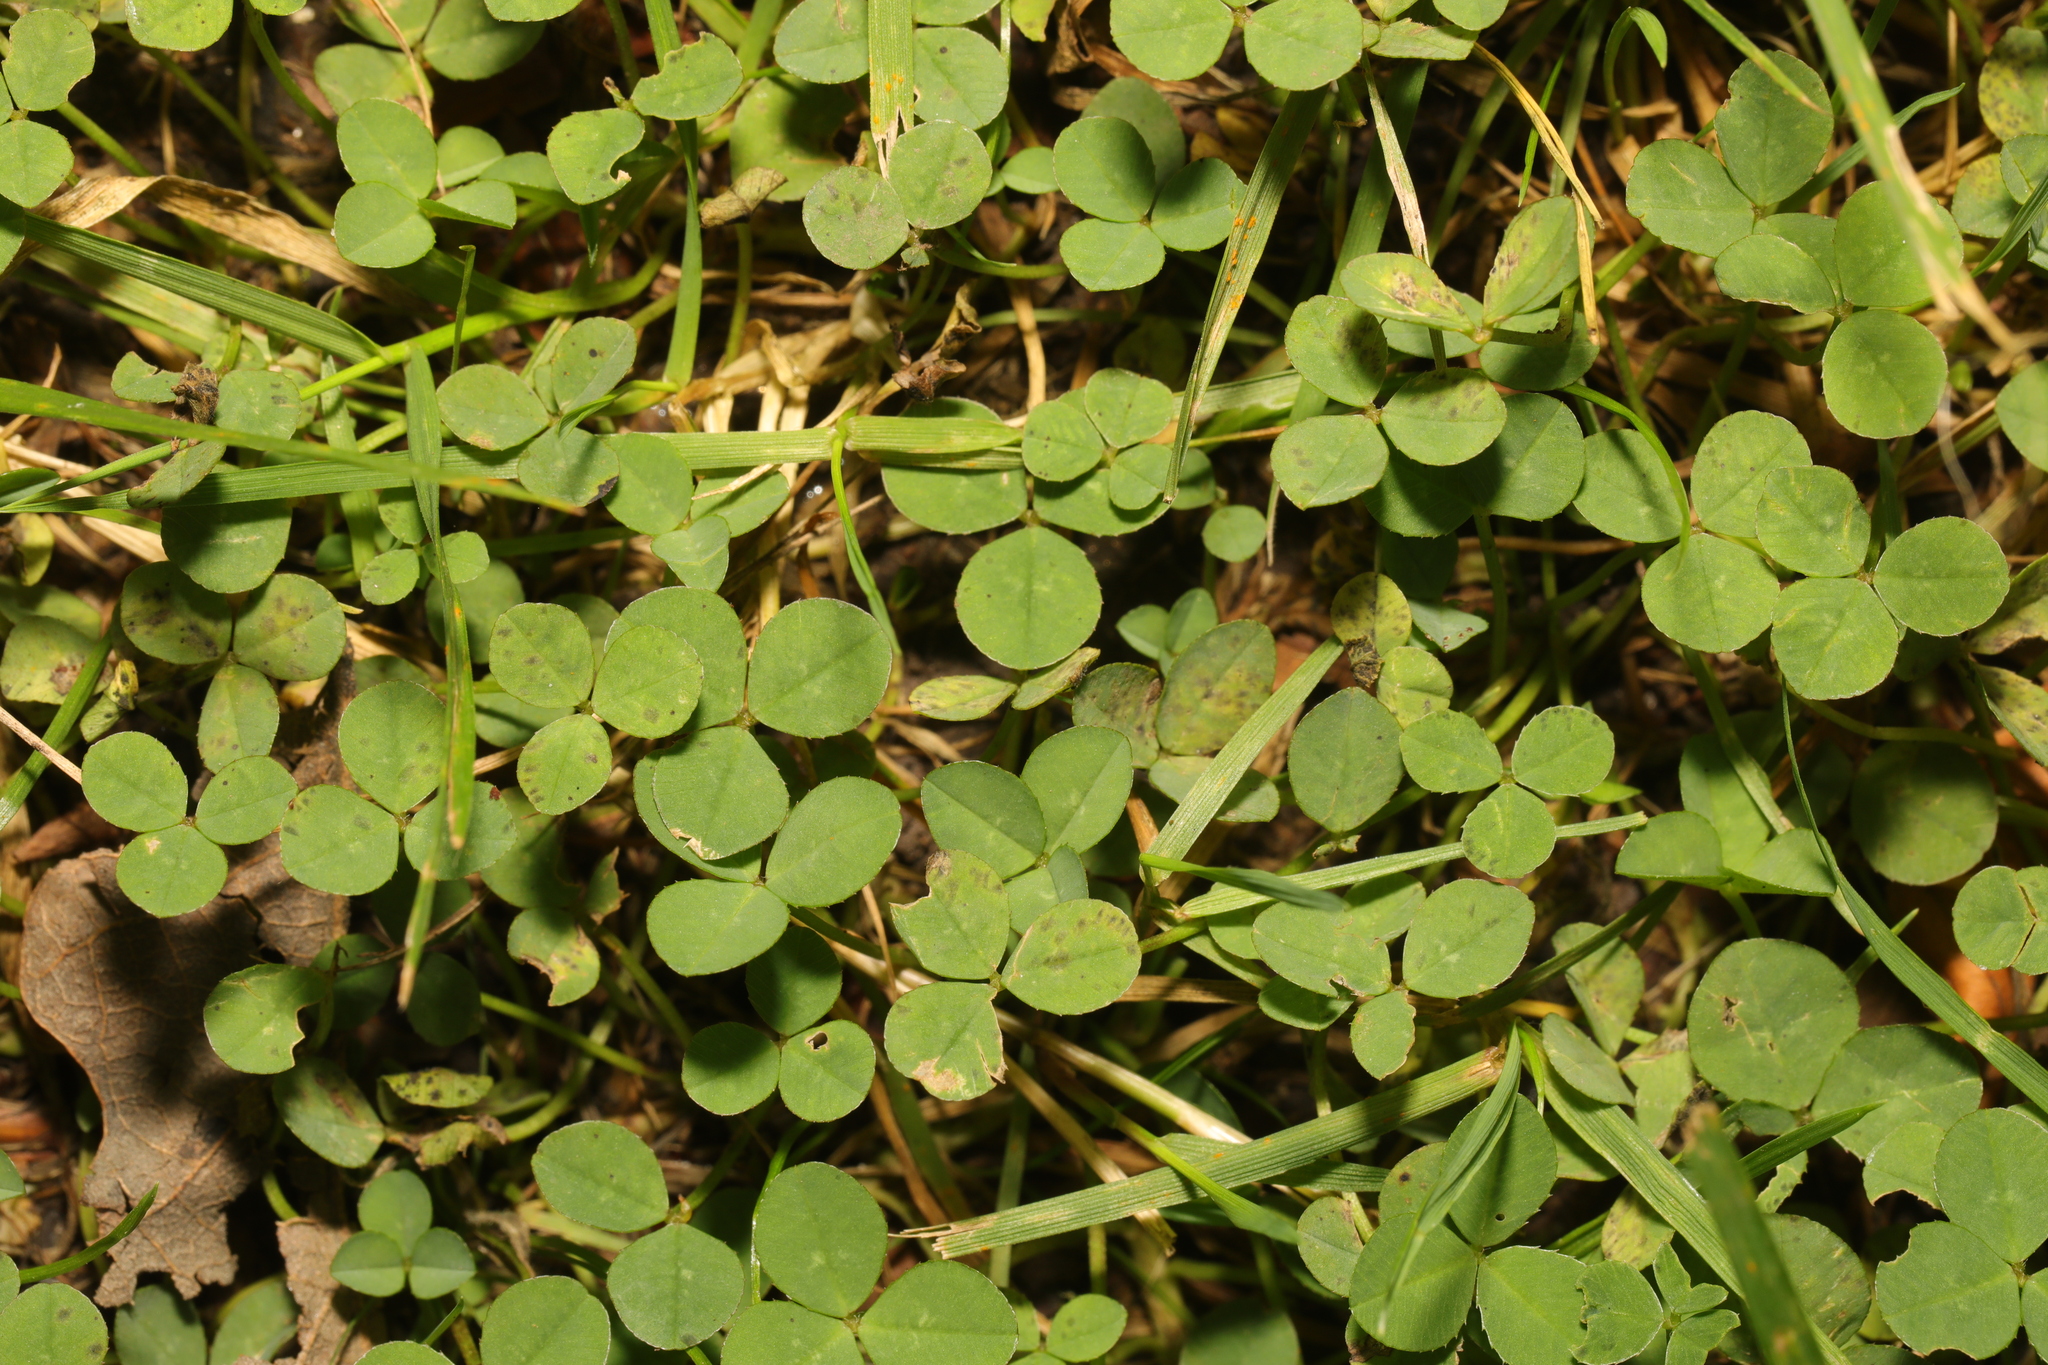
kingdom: Plantae
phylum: Tracheophyta
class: Magnoliopsida
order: Fabales
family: Fabaceae
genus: Trifolium
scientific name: Trifolium repens
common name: White clover
